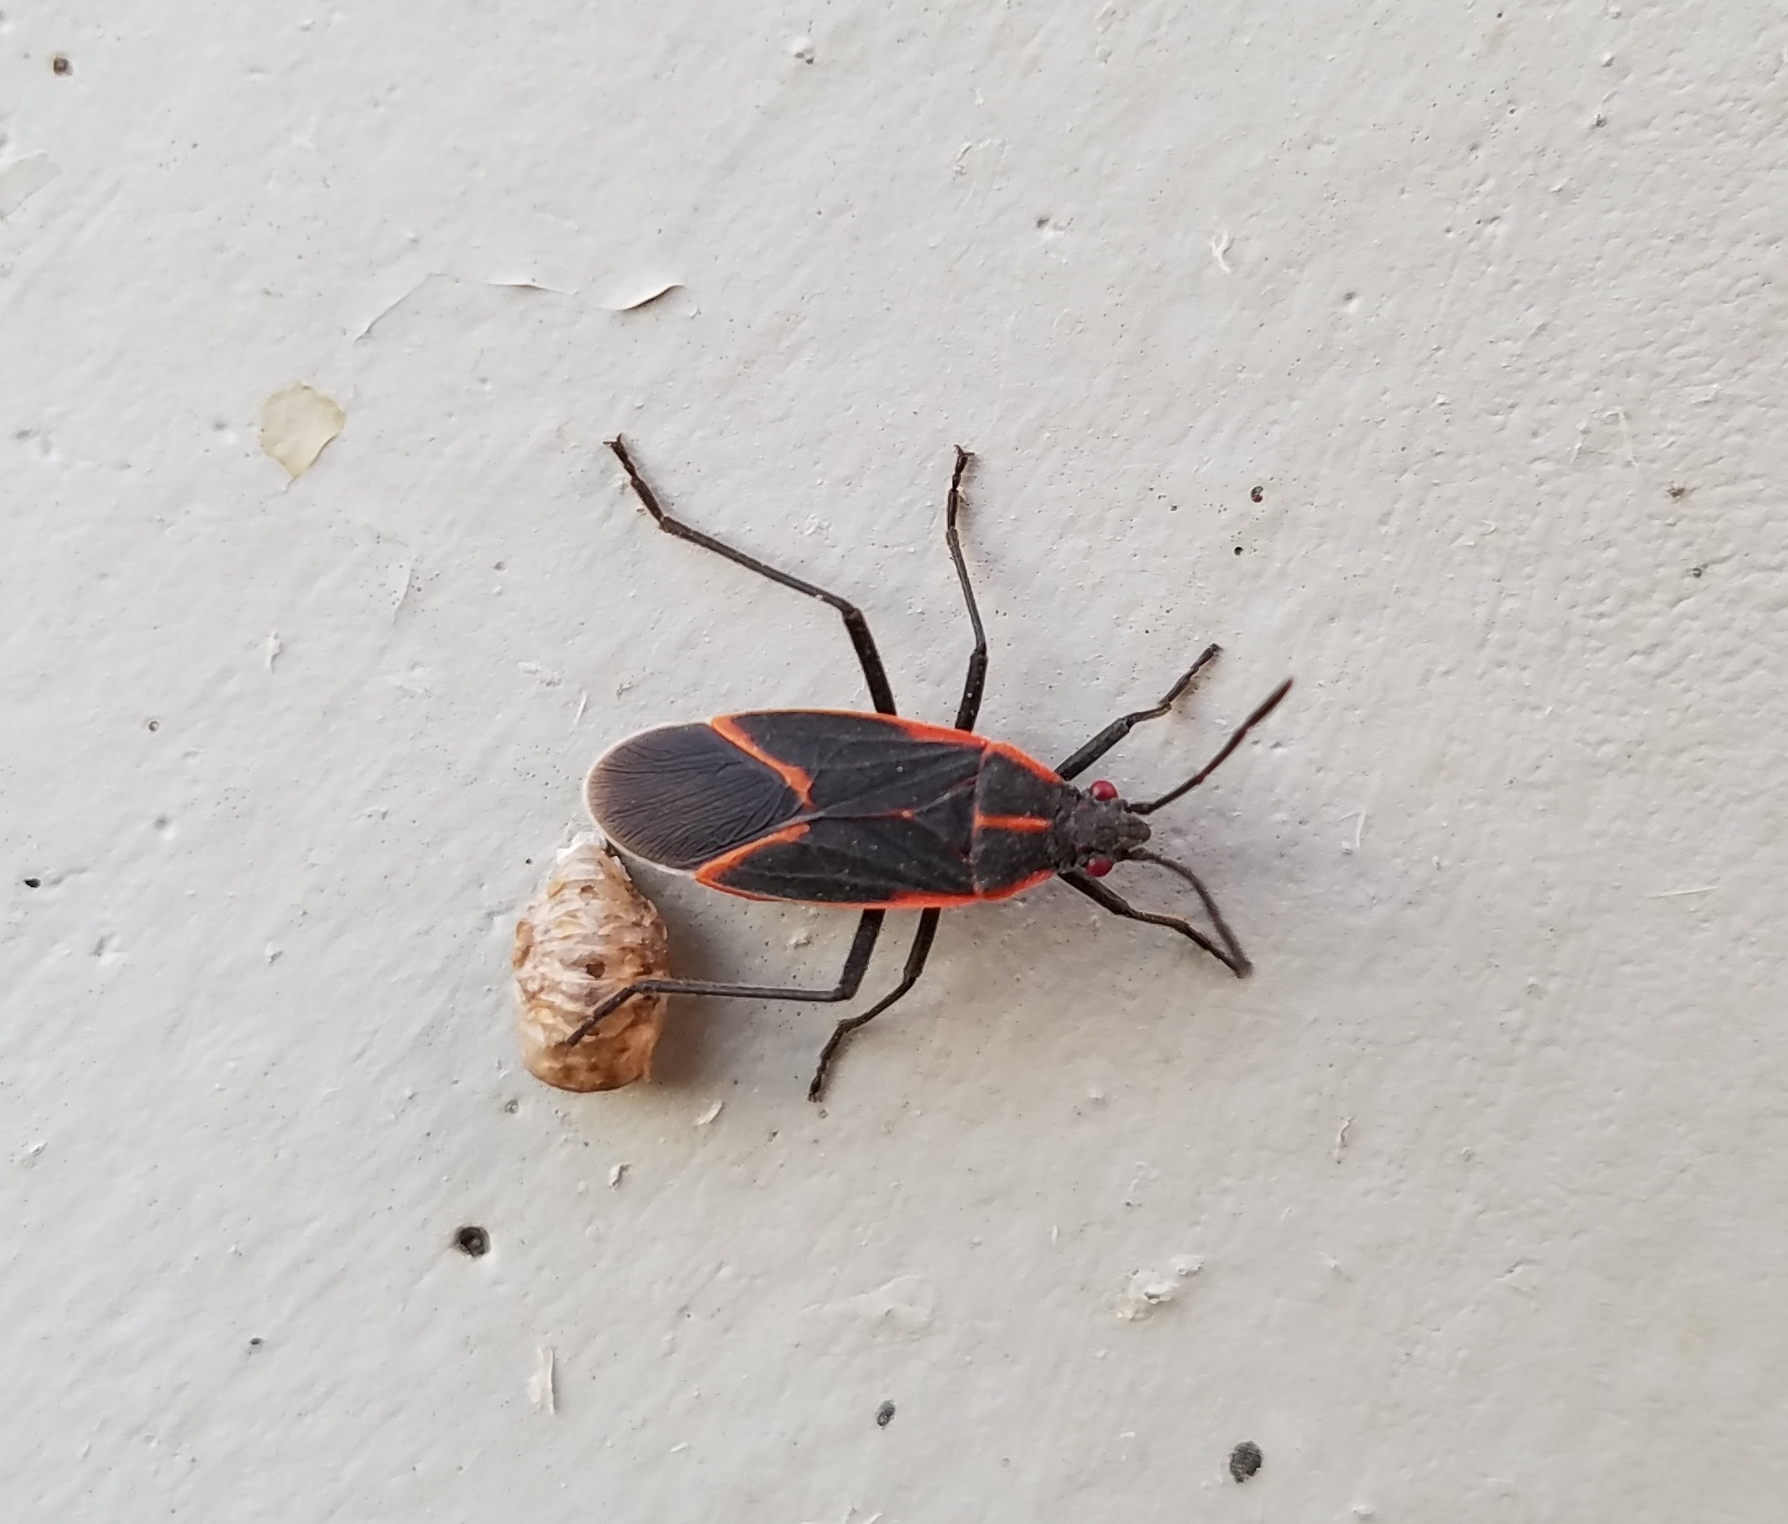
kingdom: Animalia
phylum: Arthropoda
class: Insecta
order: Hemiptera
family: Rhopalidae
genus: Boisea
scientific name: Boisea trivittata
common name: Boxelder bug
